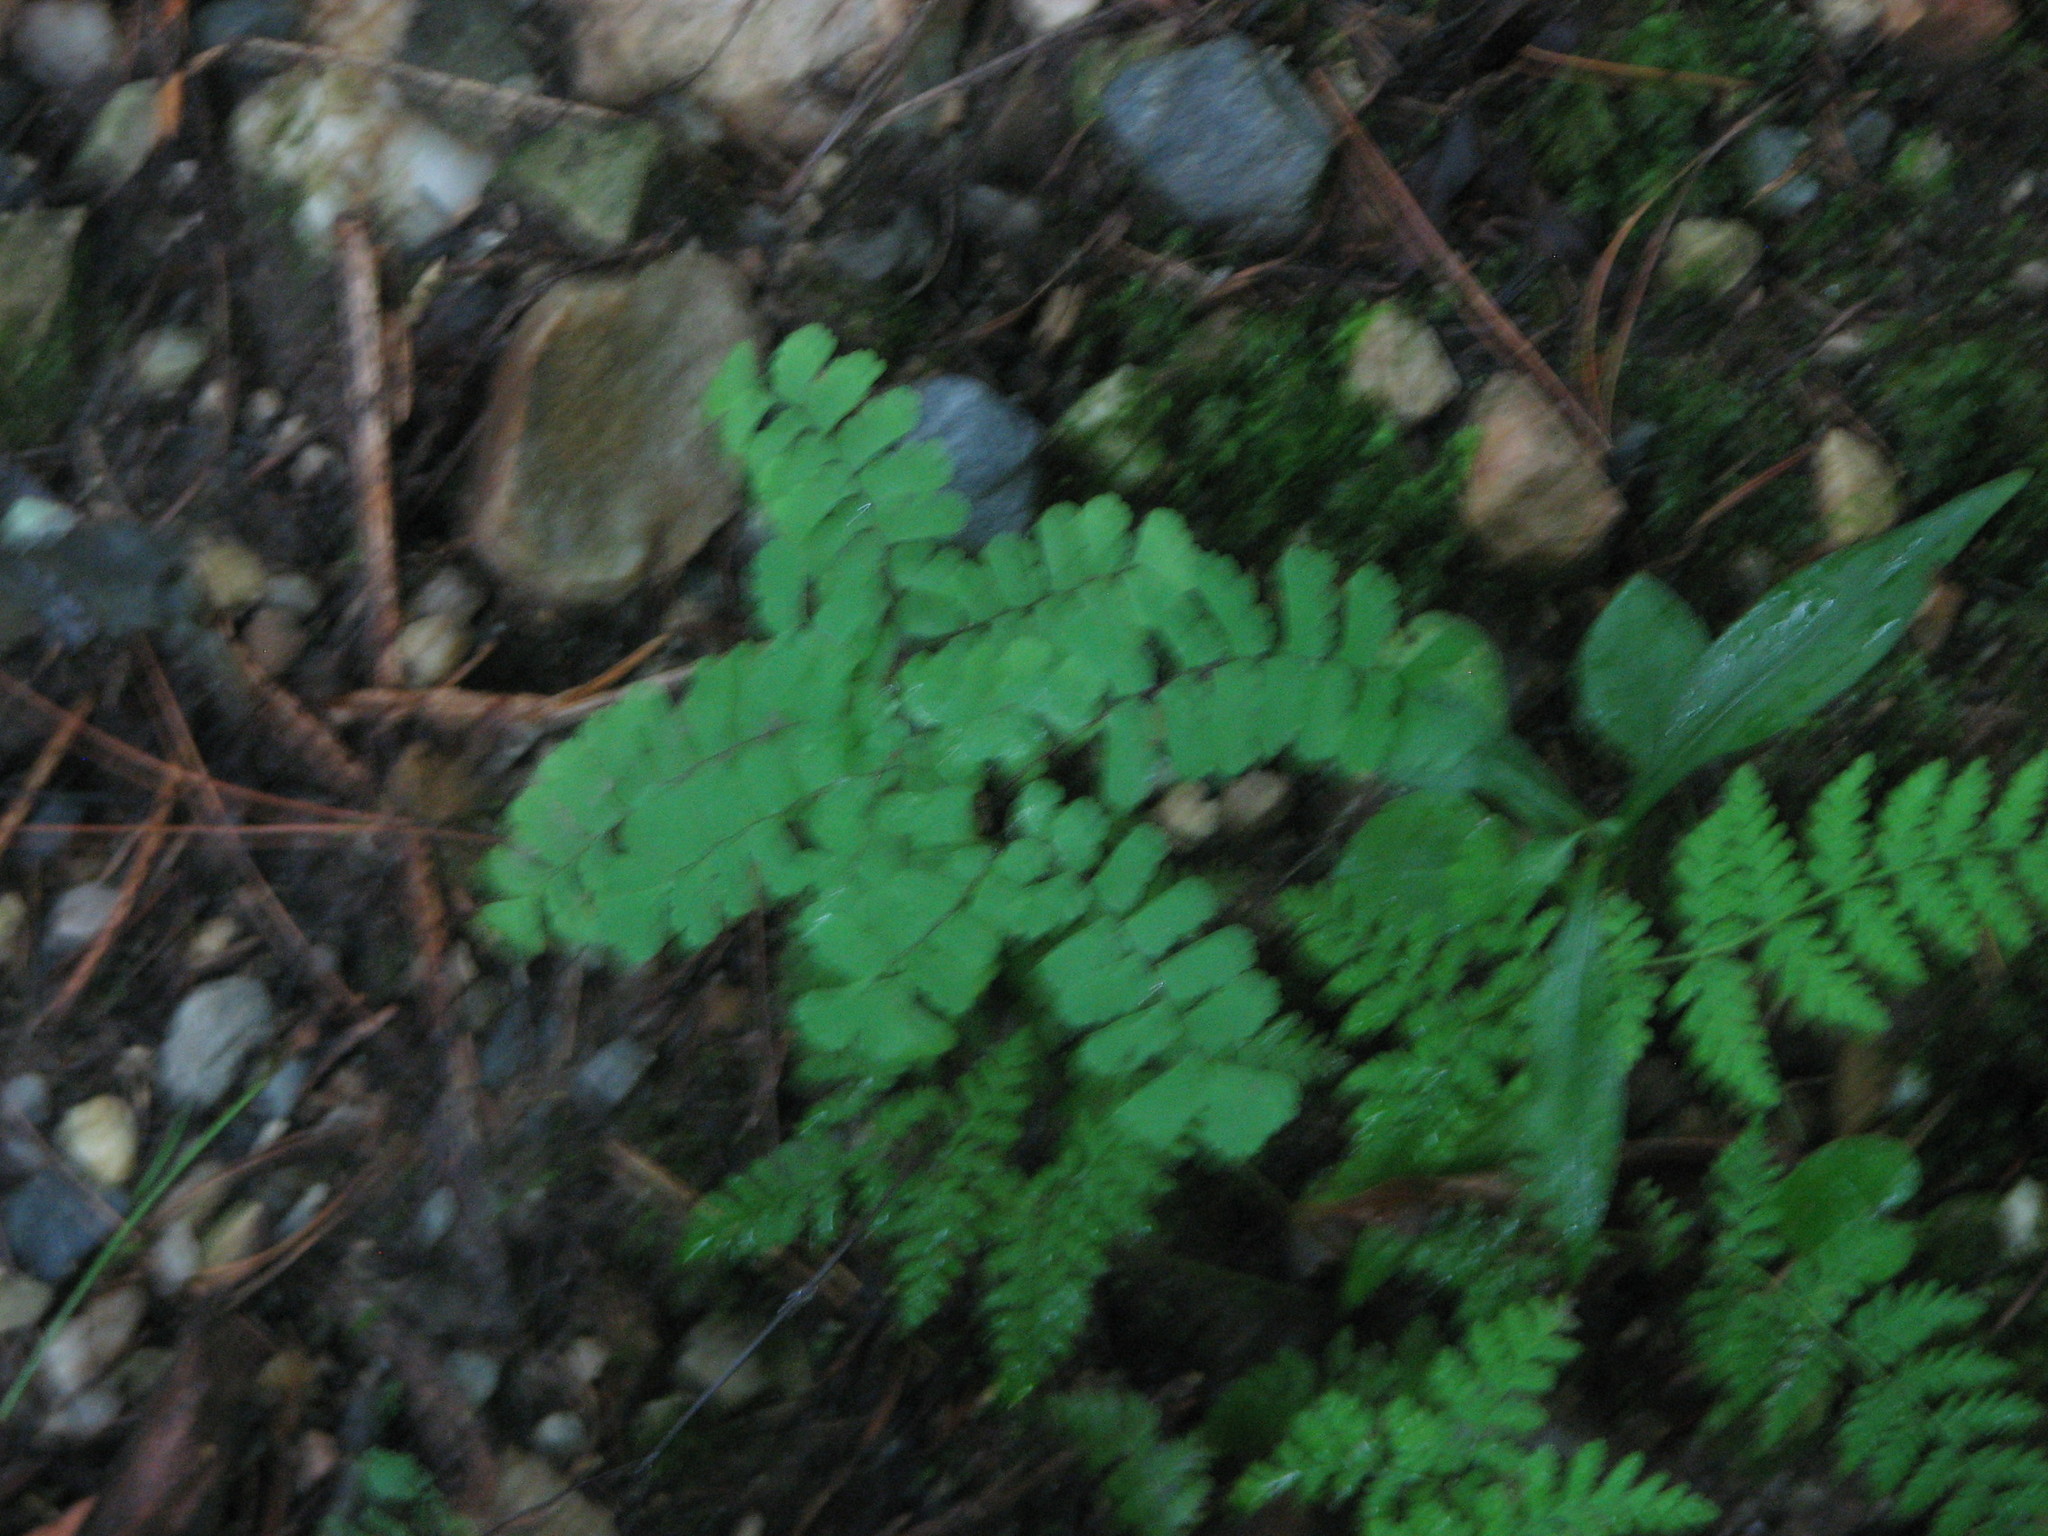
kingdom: Plantae
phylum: Tracheophyta
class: Polypodiopsida
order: Polypodiales
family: Pteridaceae
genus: Adiantum
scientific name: Adiantum pedatum
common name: Five-finger fern
